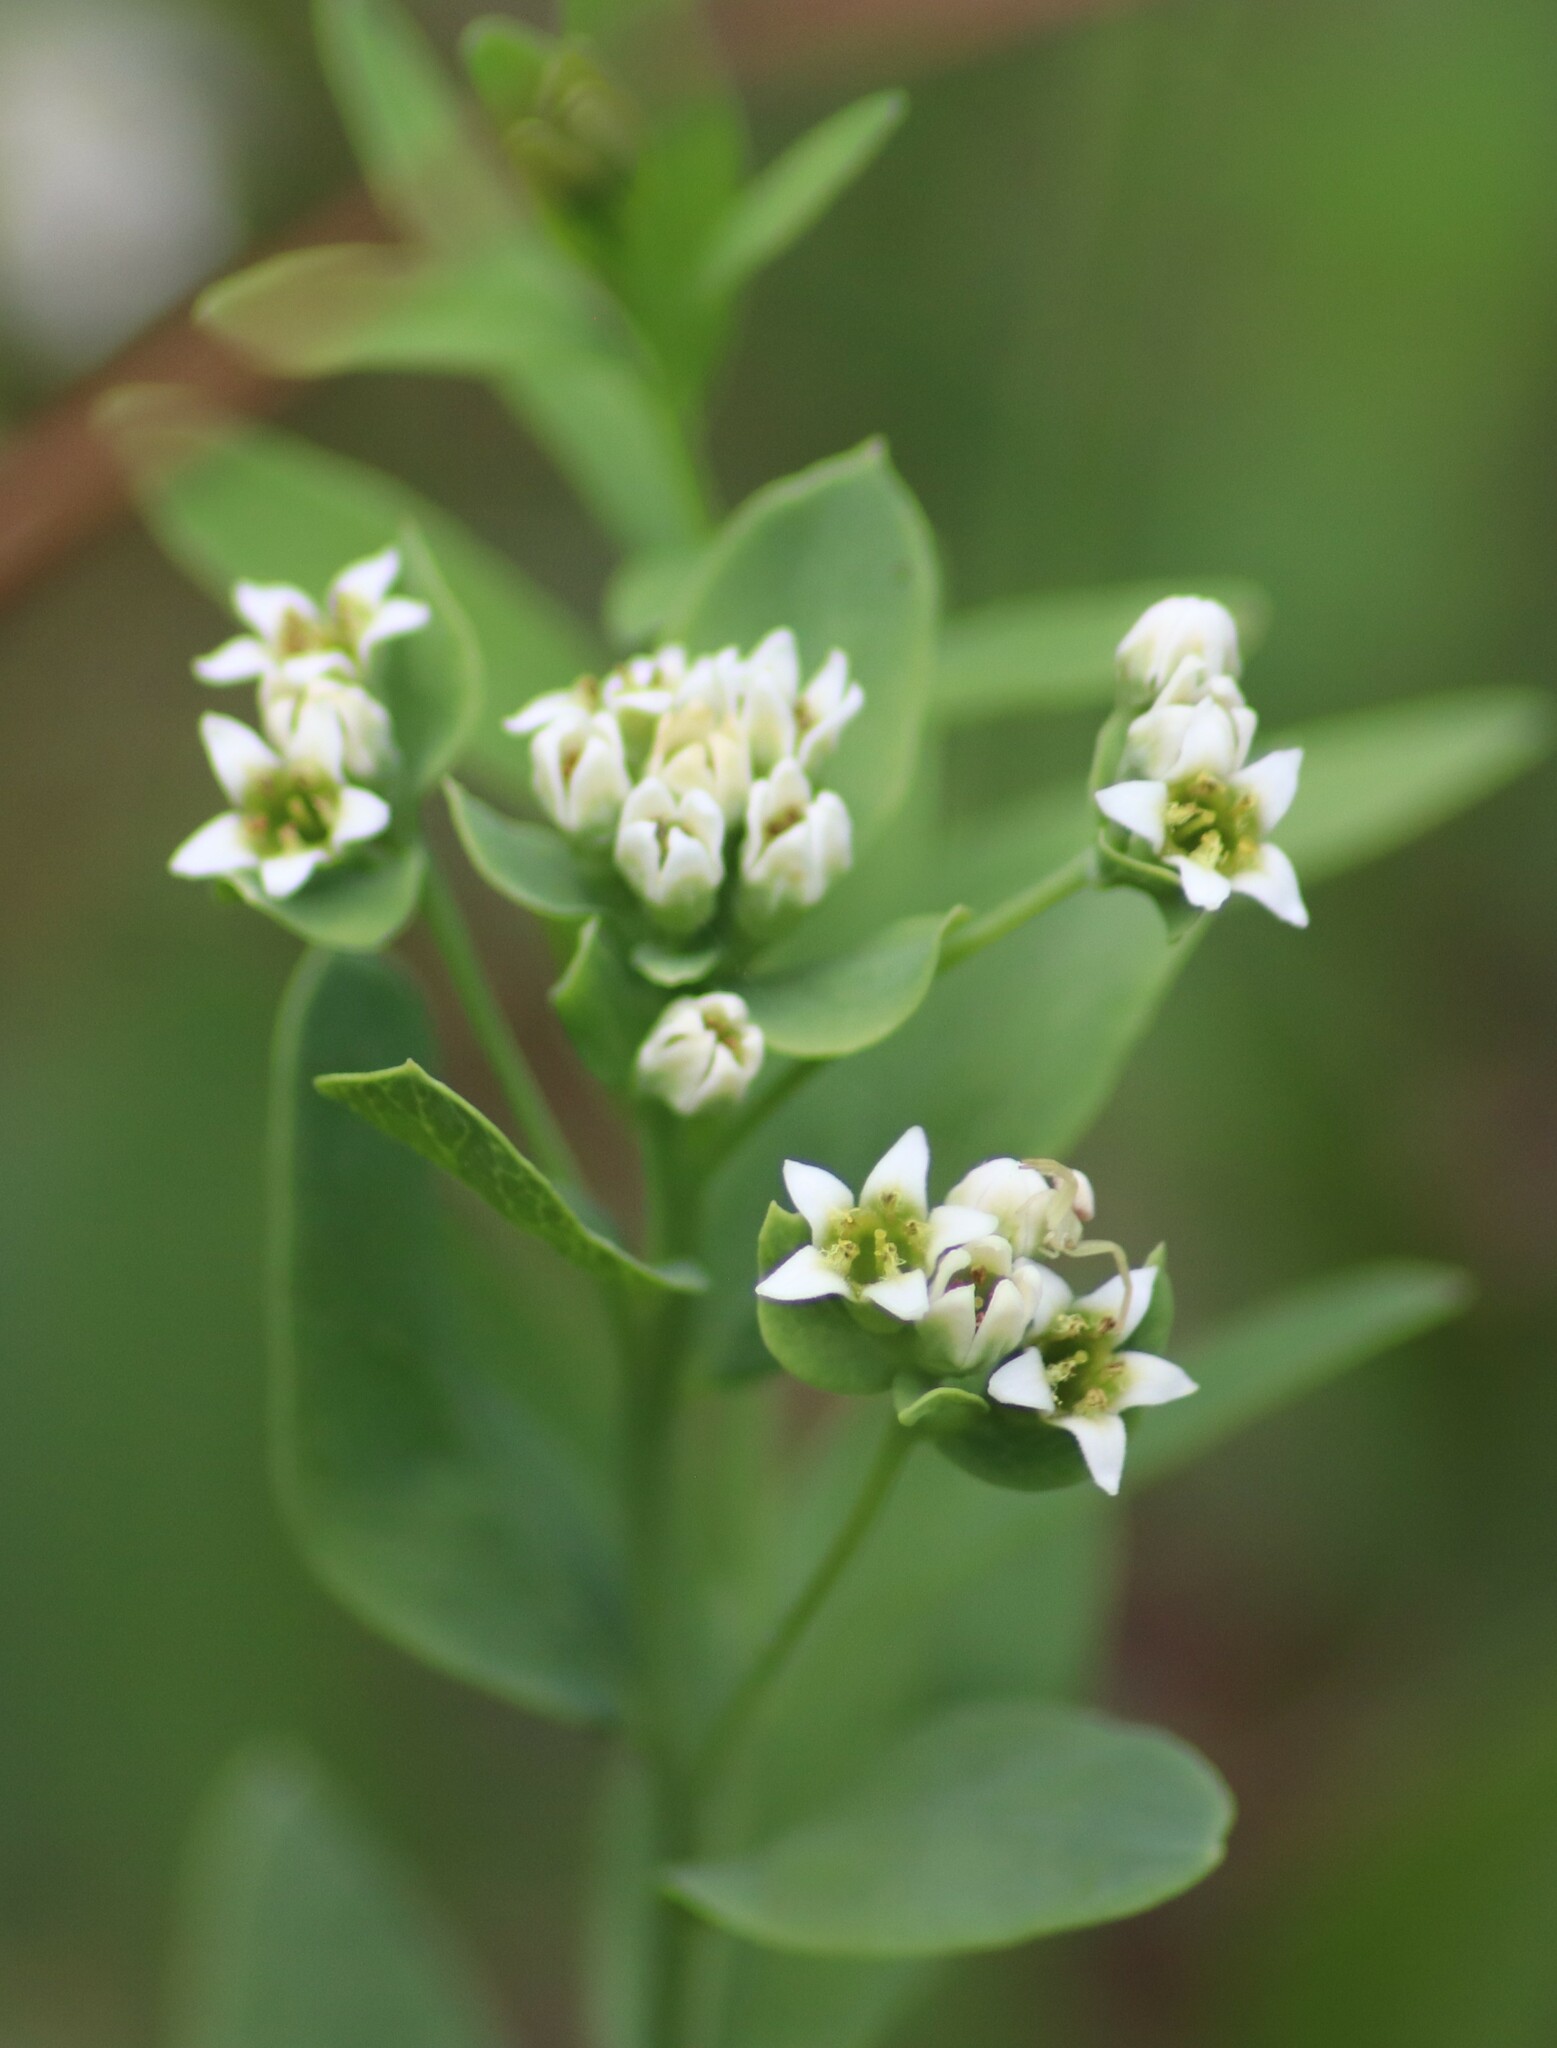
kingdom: Plantae
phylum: Tracheophyta
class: Magnoliopsida
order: Santalales
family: Comandraceae
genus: Comandra
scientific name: Comandra umbellata
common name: Bastard toadflax
